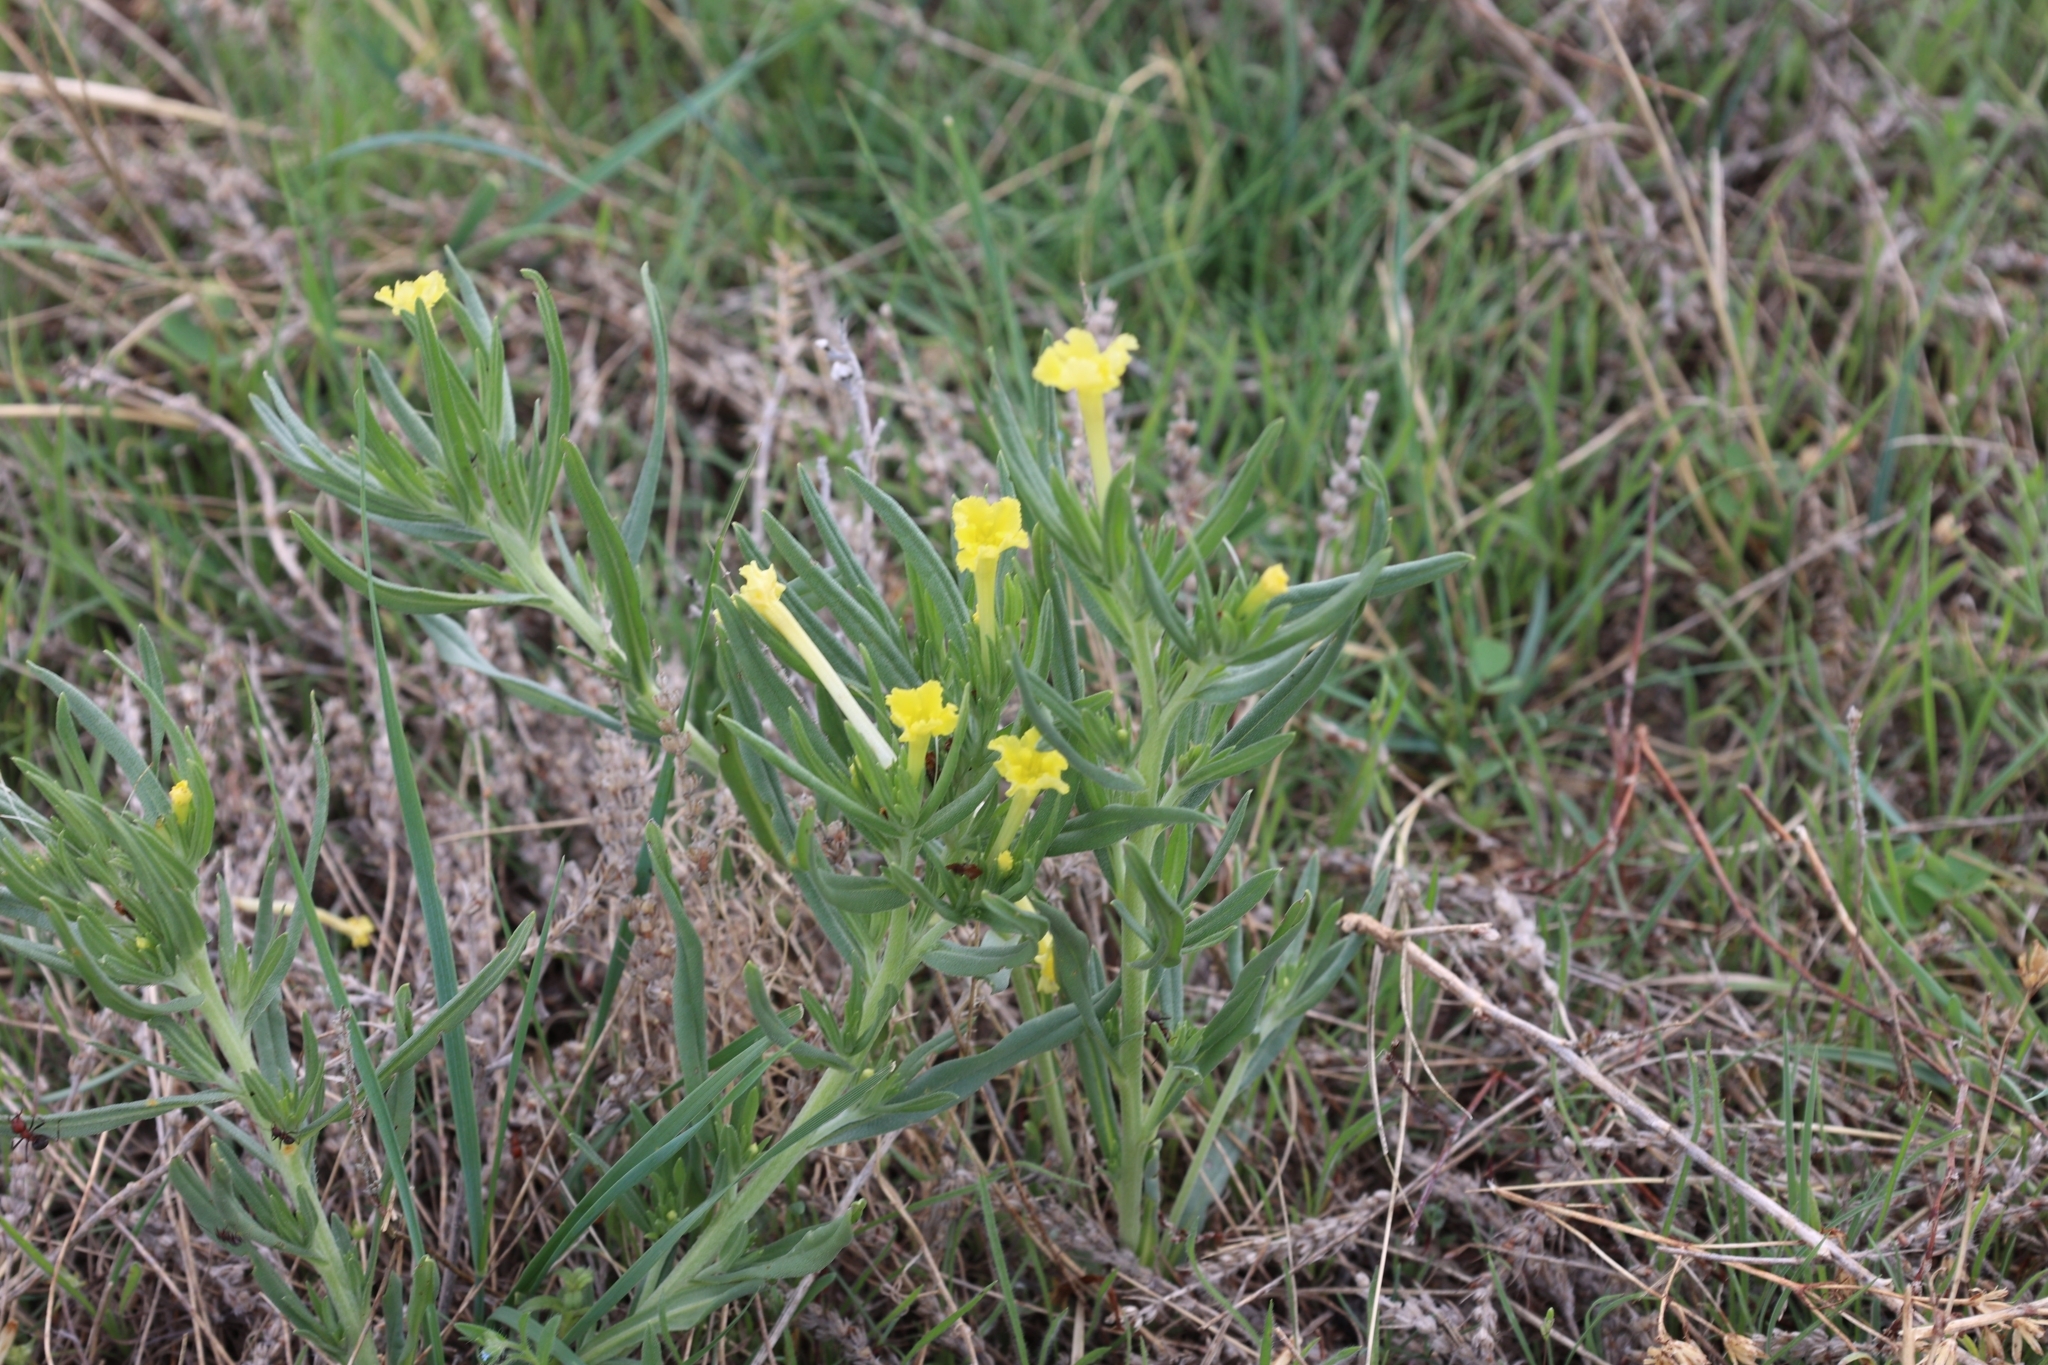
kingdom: Plantae
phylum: Tracheophyta
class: Magnoliopsida
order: Boraginales
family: Boraginaceae
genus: Lithospermum
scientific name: Lithospermum incisum
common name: Fringed gromwell
